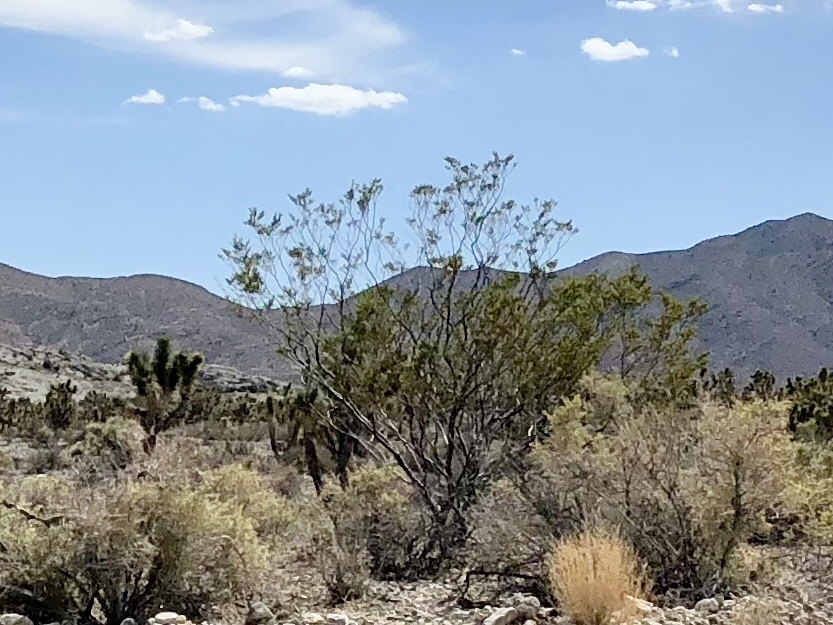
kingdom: Plantae
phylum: Tracheophyta
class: Magnoliopsida
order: Zygophyllales
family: Zygophyllaceae
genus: Larrea
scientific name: Larrea tridentata
